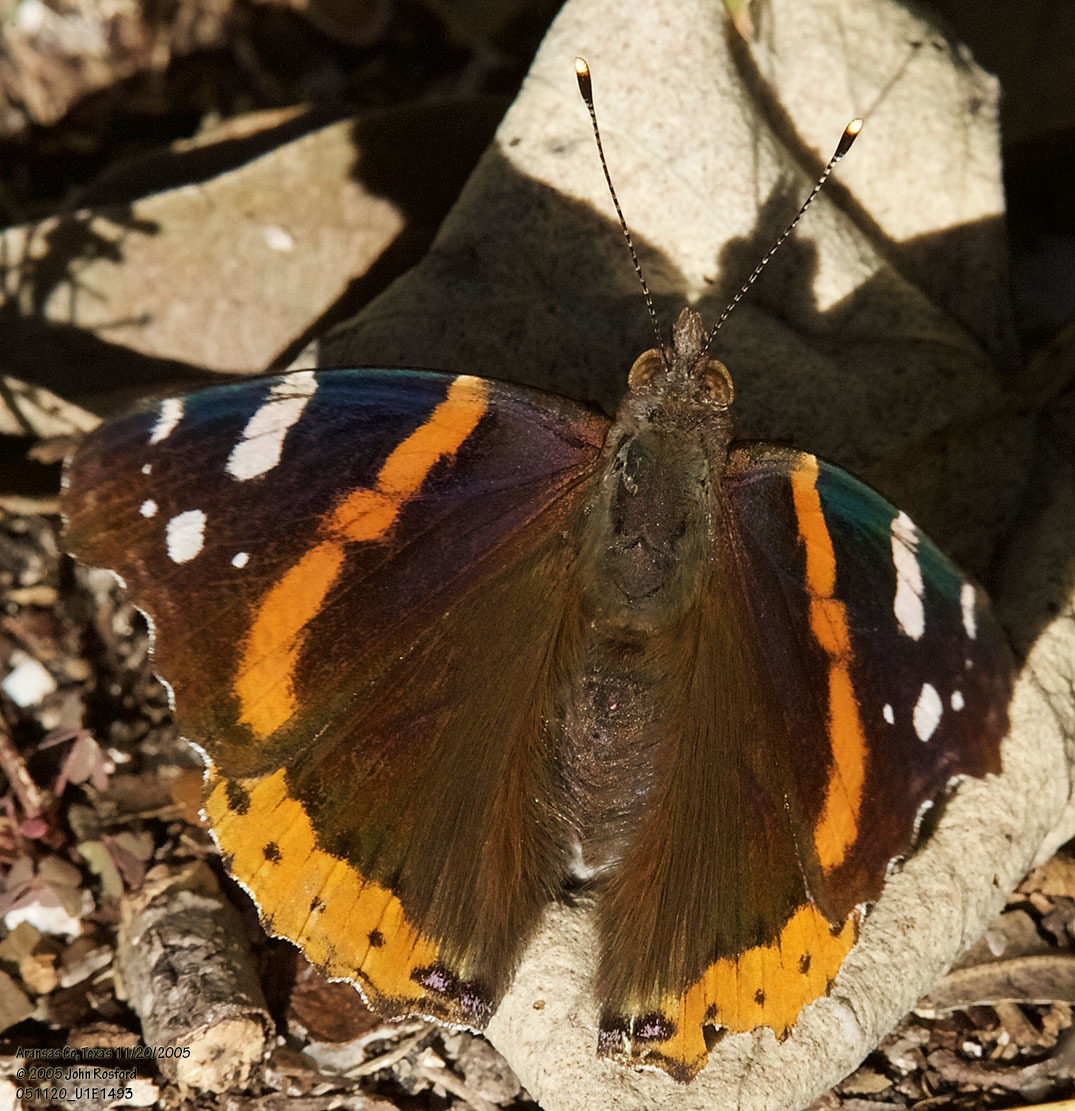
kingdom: Animalia
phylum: Arthropoda
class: Insecta
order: Lepidoptera
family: Nymphalidae
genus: Vanessa
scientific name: Vanessa atalanta
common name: Red admiral
